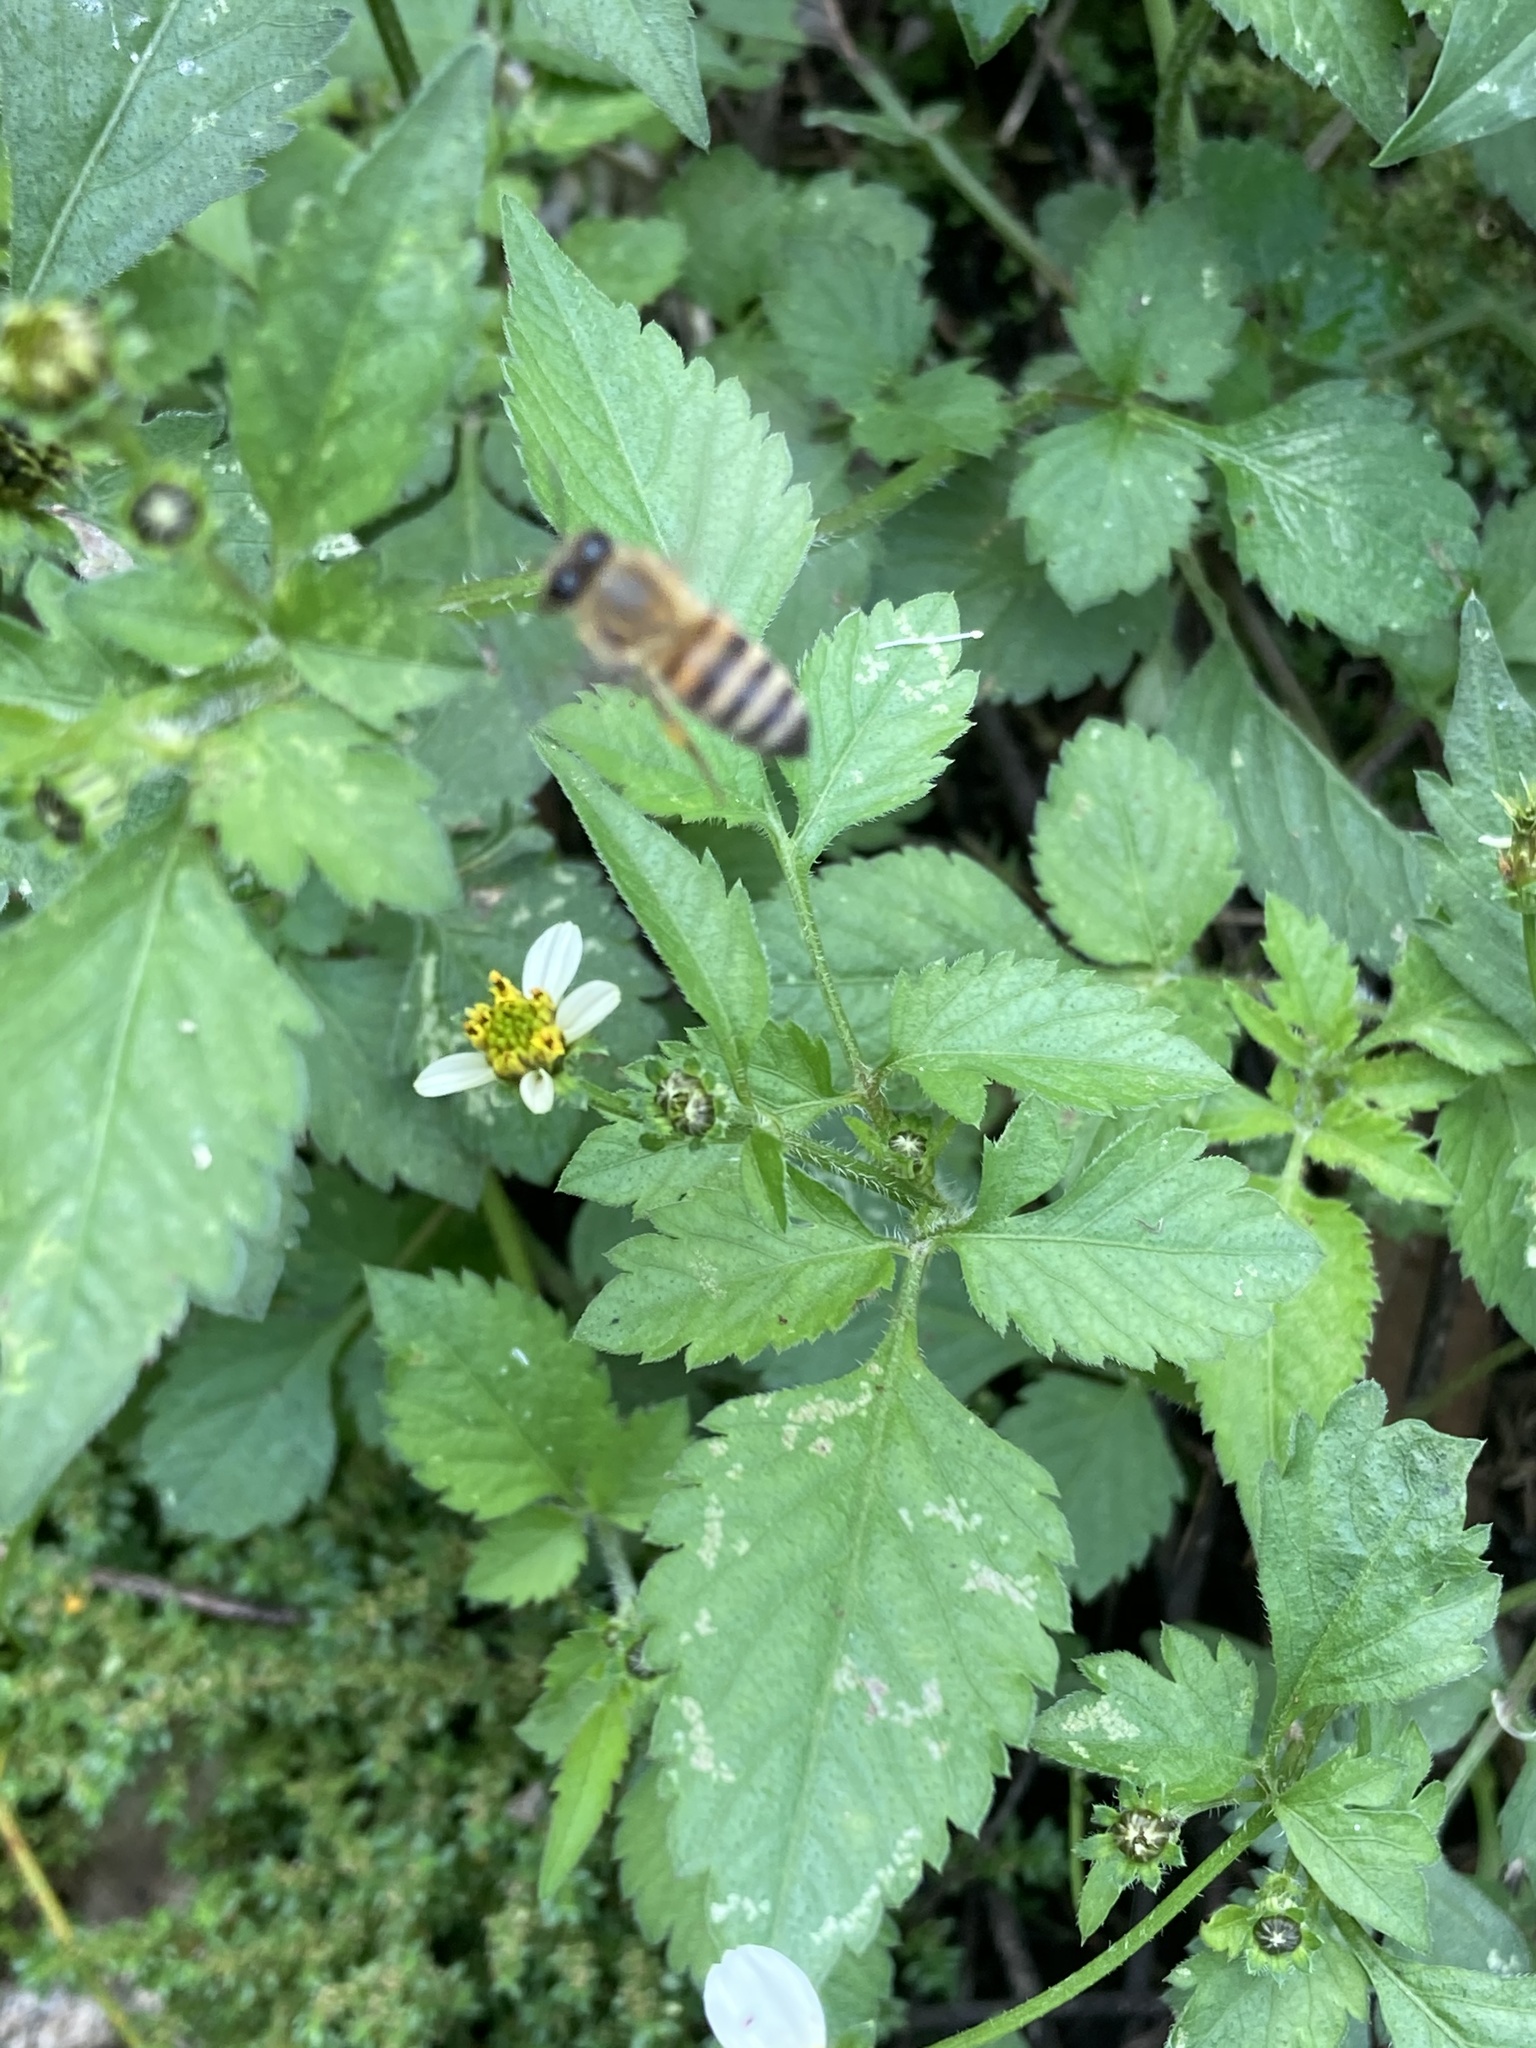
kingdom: Animalia
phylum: Arthropoda
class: Insecta
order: Hymenoptera
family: Apidae
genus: Apis
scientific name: Apis mellifera
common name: Honey bee
